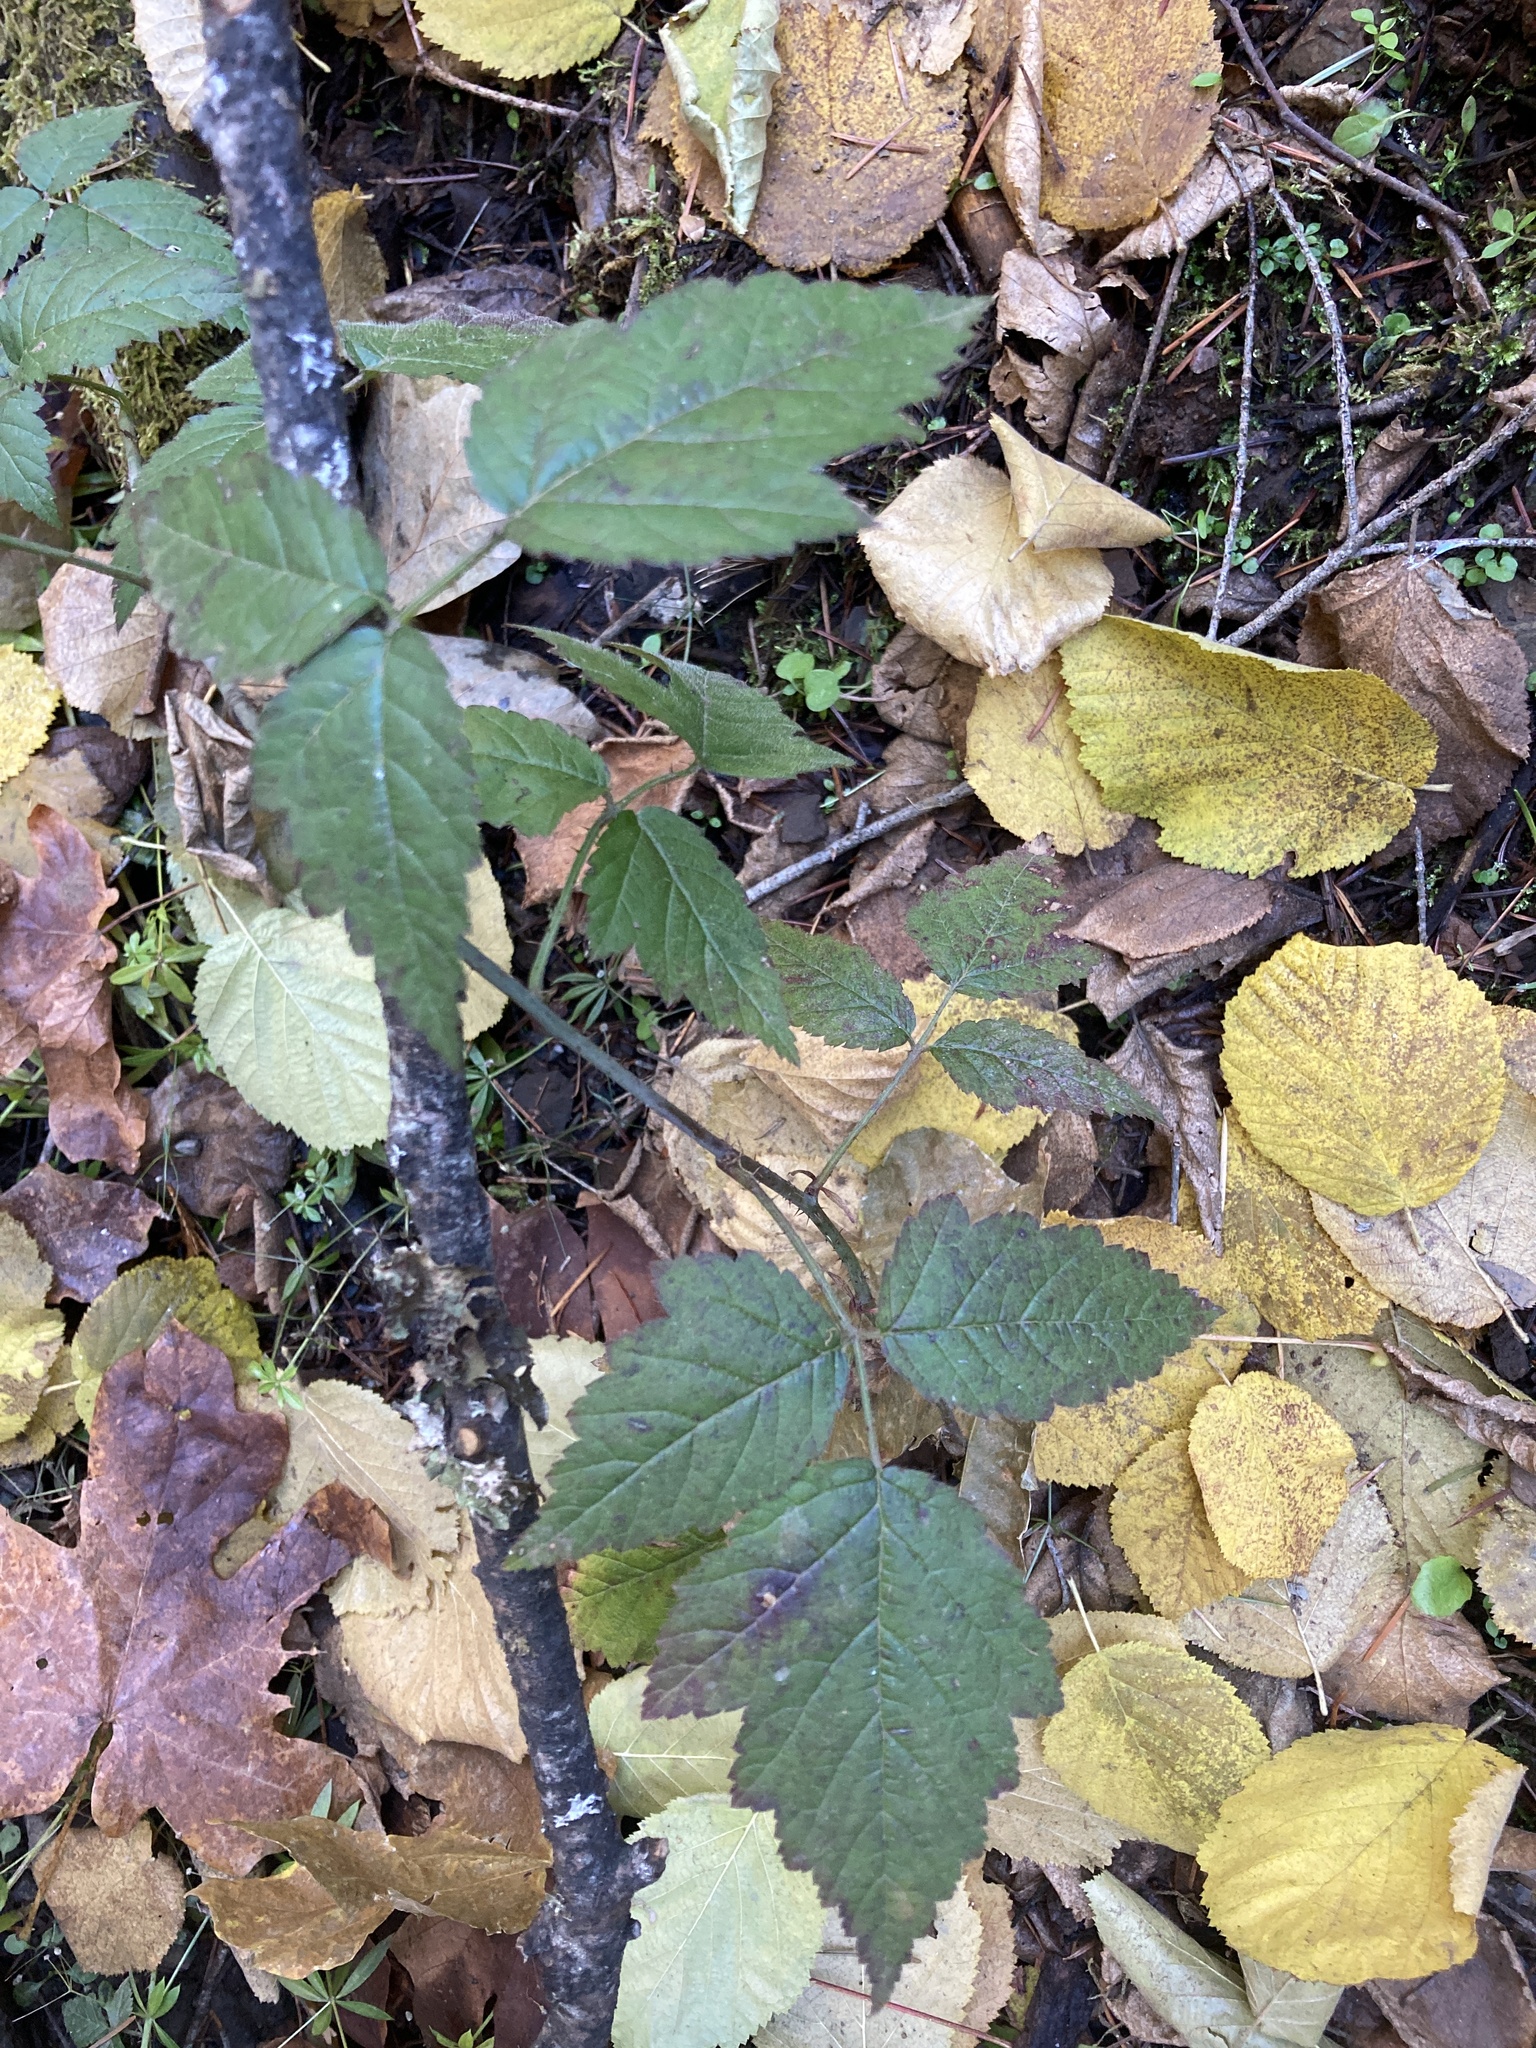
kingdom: Plantae
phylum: Tracheophyta
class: Magnoliopsida
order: Rosales
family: Rosaceae
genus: Rubus
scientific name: Rubus ursinus
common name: Pacific blackberry
